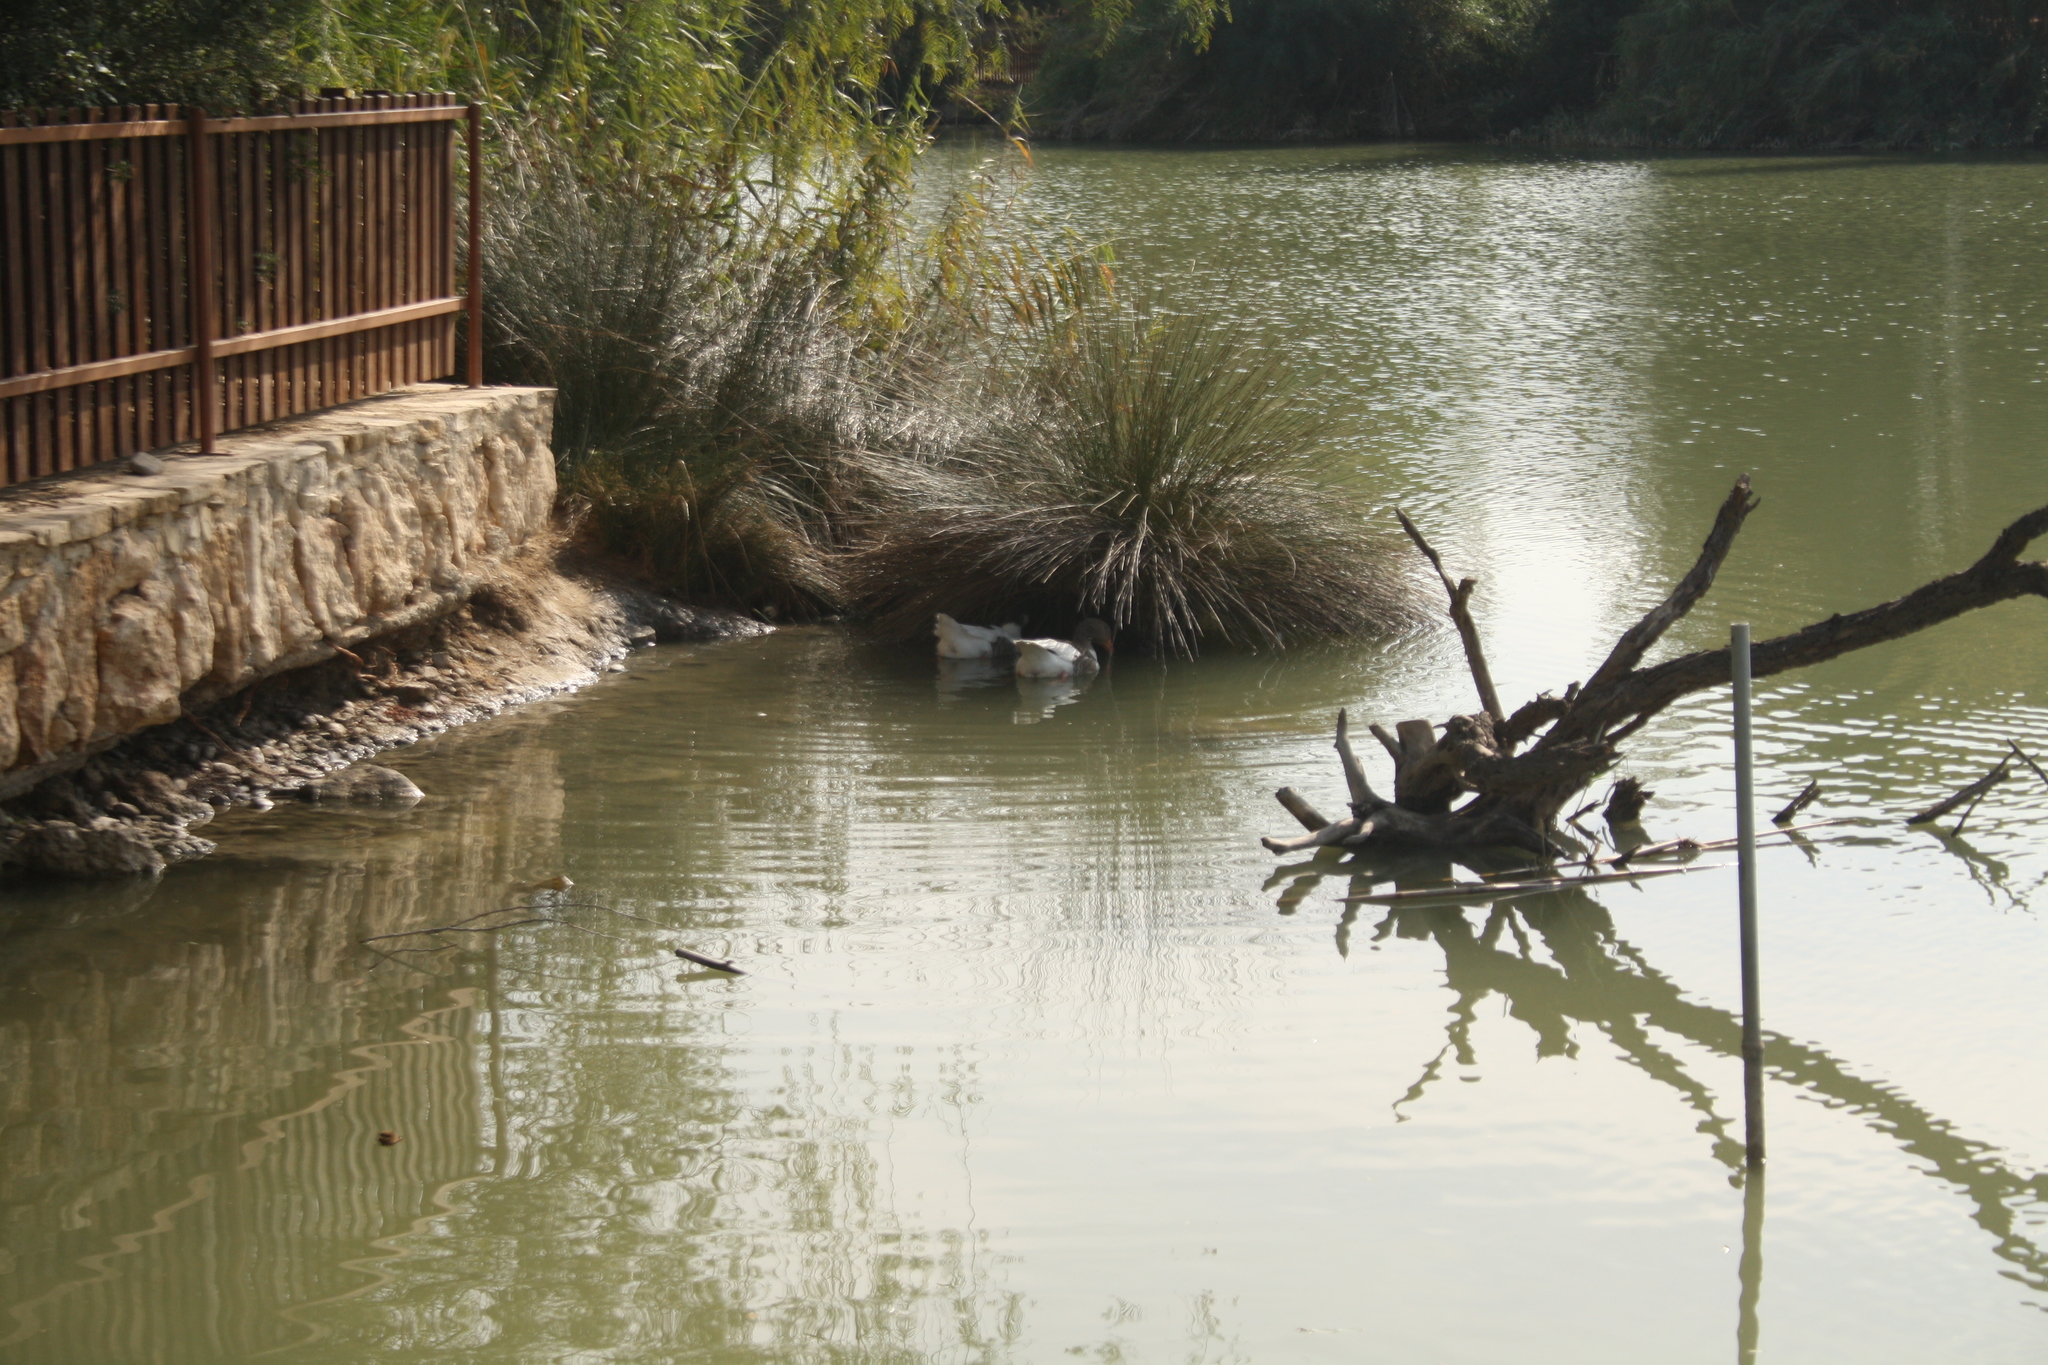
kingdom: Animalia
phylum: Chordata
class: Aves
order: Anseriformes
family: Anatidae
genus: Anser
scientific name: Anser anser
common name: Greylag goose
